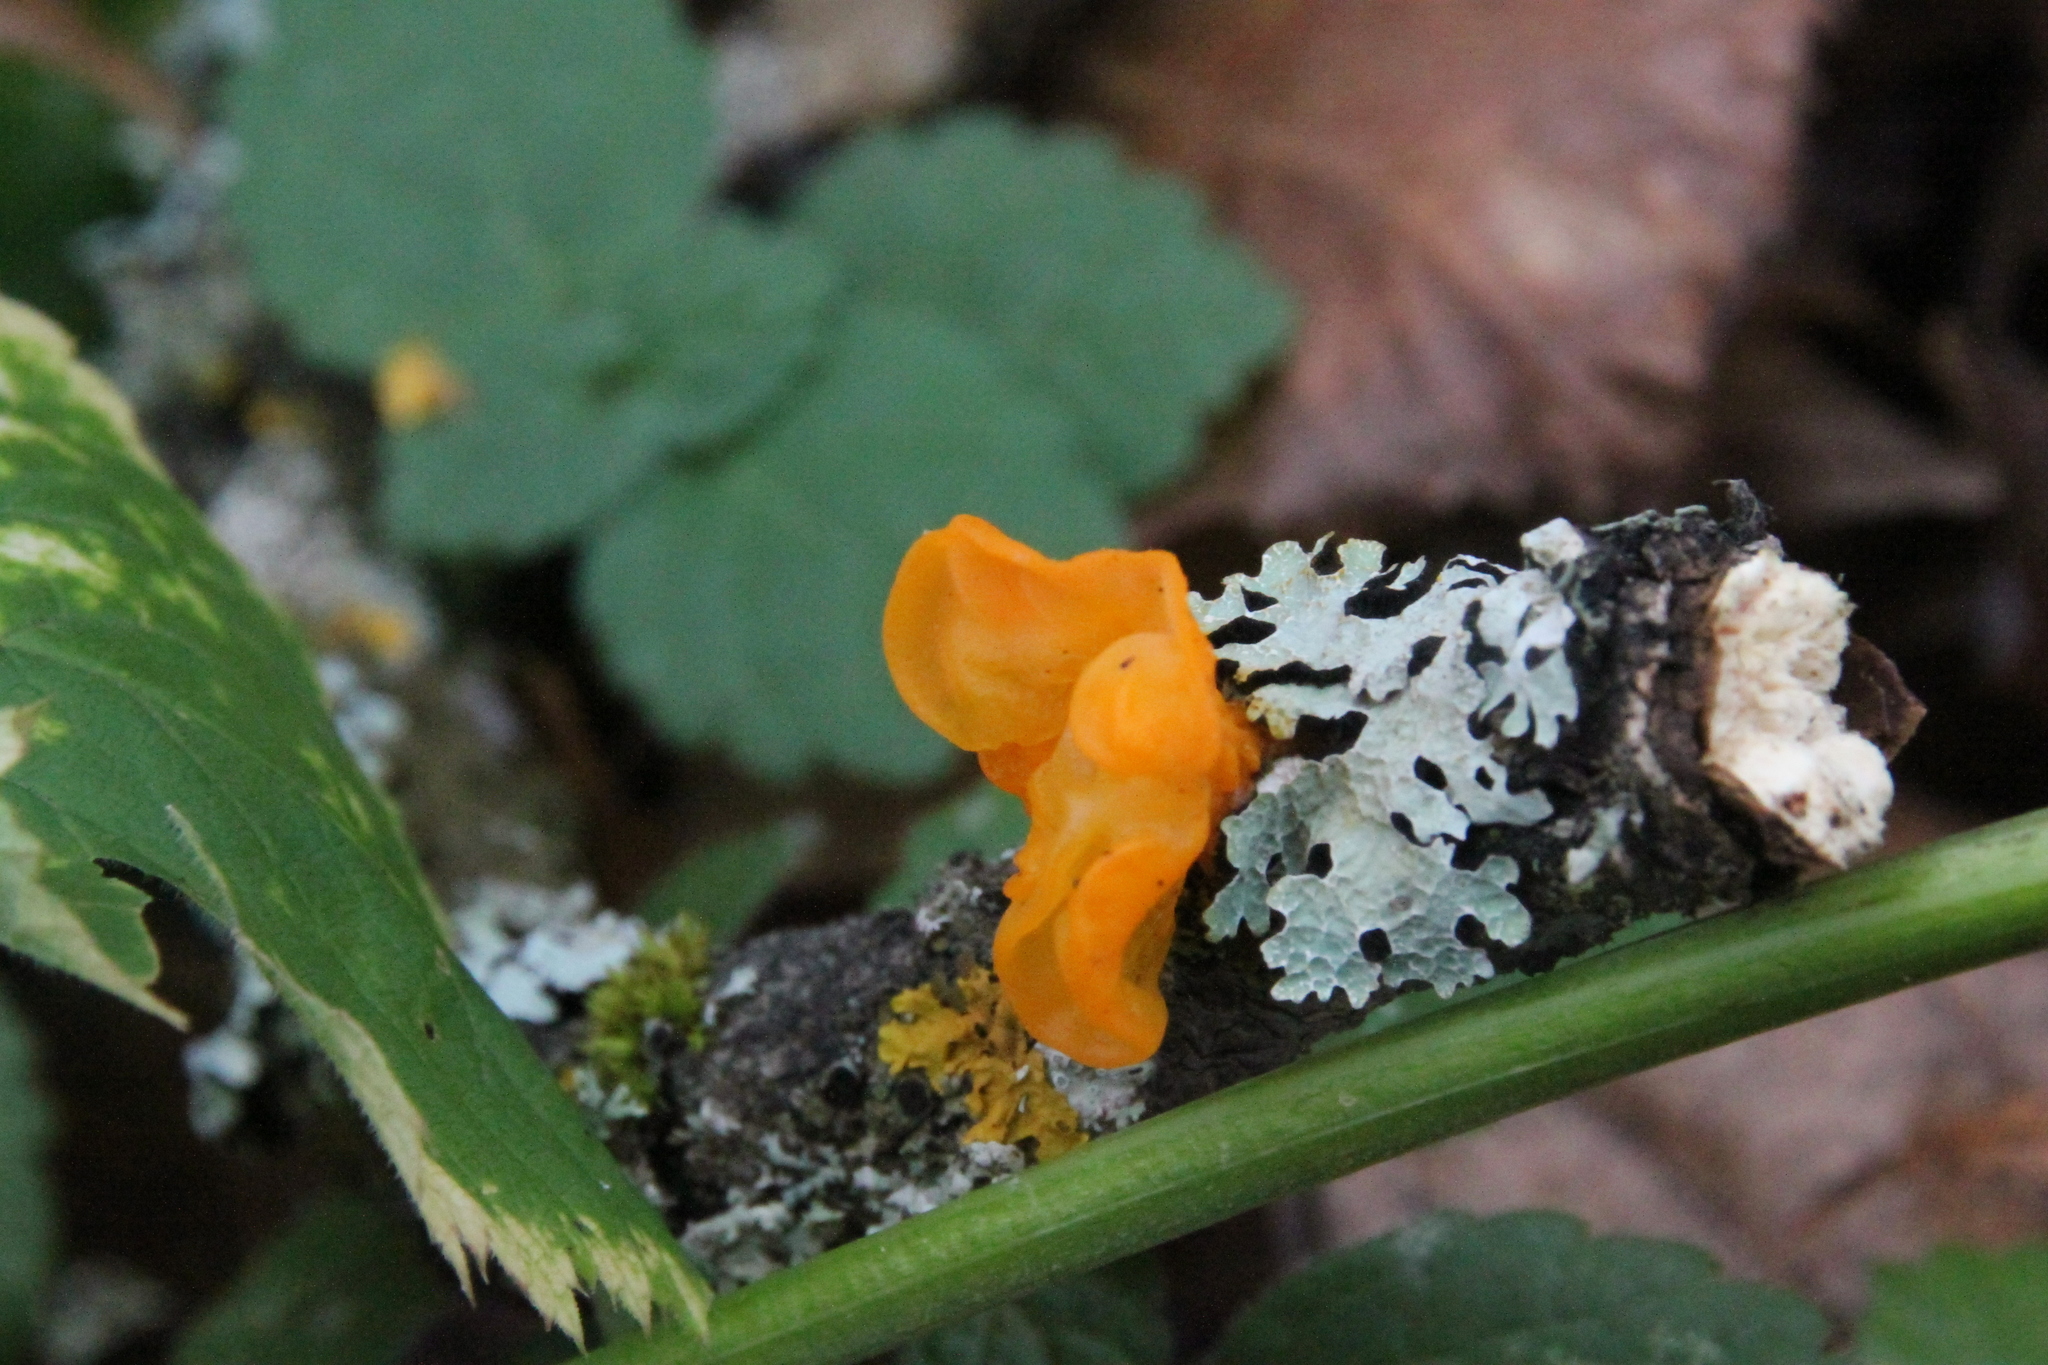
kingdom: Fungi
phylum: Ascomycota
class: Lecanoromycetes
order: Lecanorales
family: Parmeliaceae
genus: Parmelia
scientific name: Parmelia sulcata
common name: Netted shield lichen
